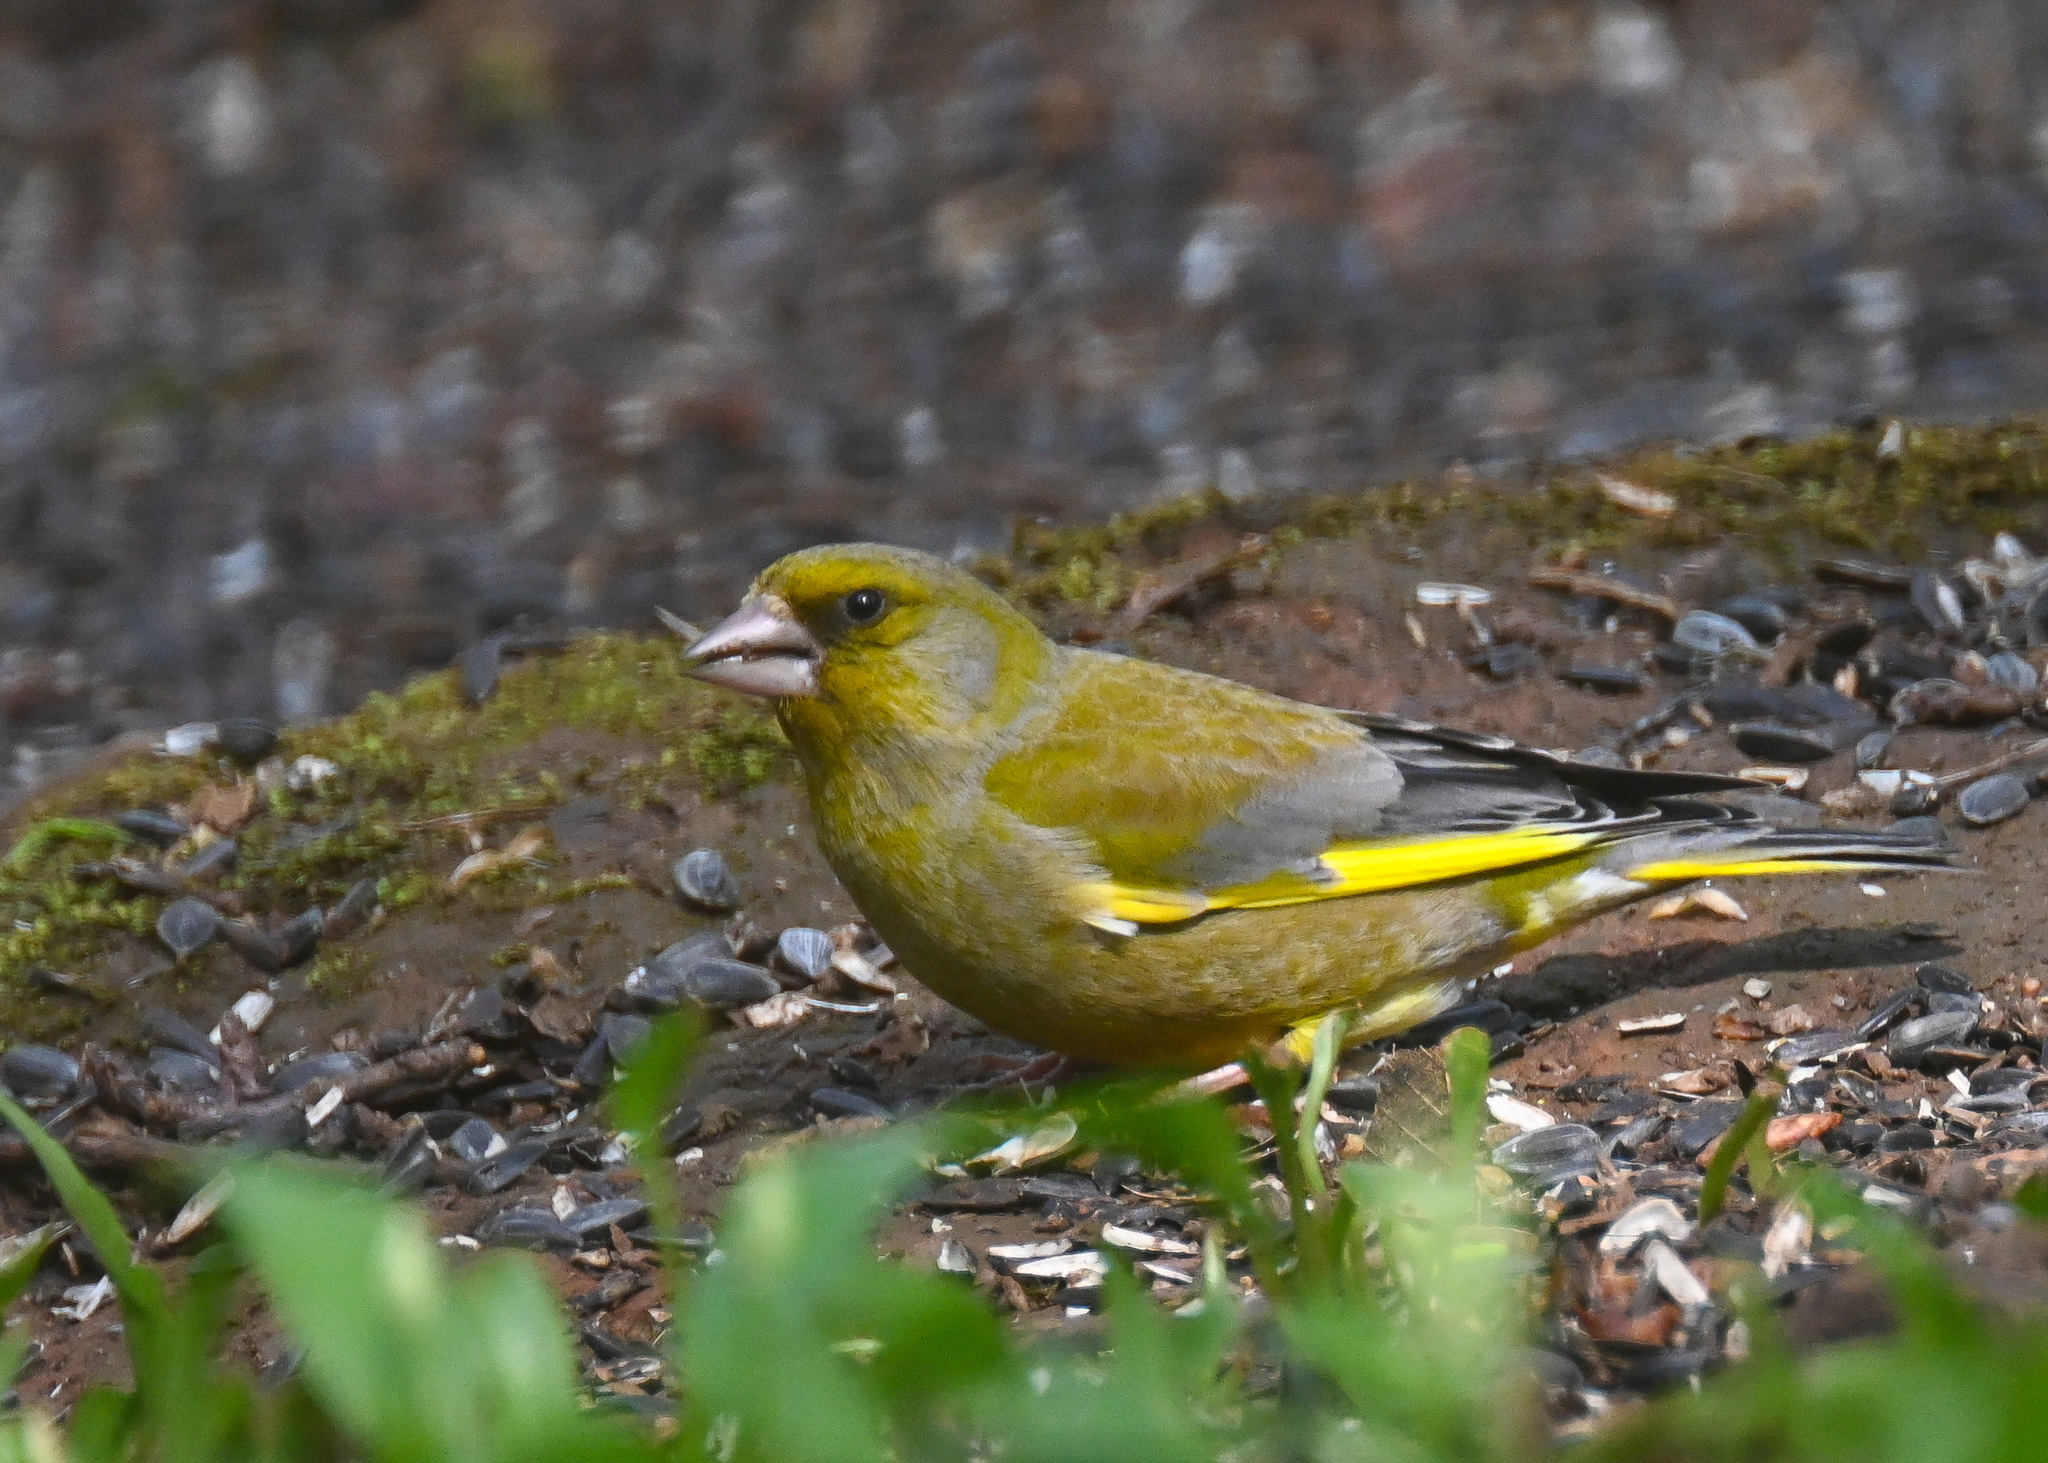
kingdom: Plantae
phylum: Tracheophyta
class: Liliopsida
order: Poales
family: Poaceae
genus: Chloris
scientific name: Chloris chloris
